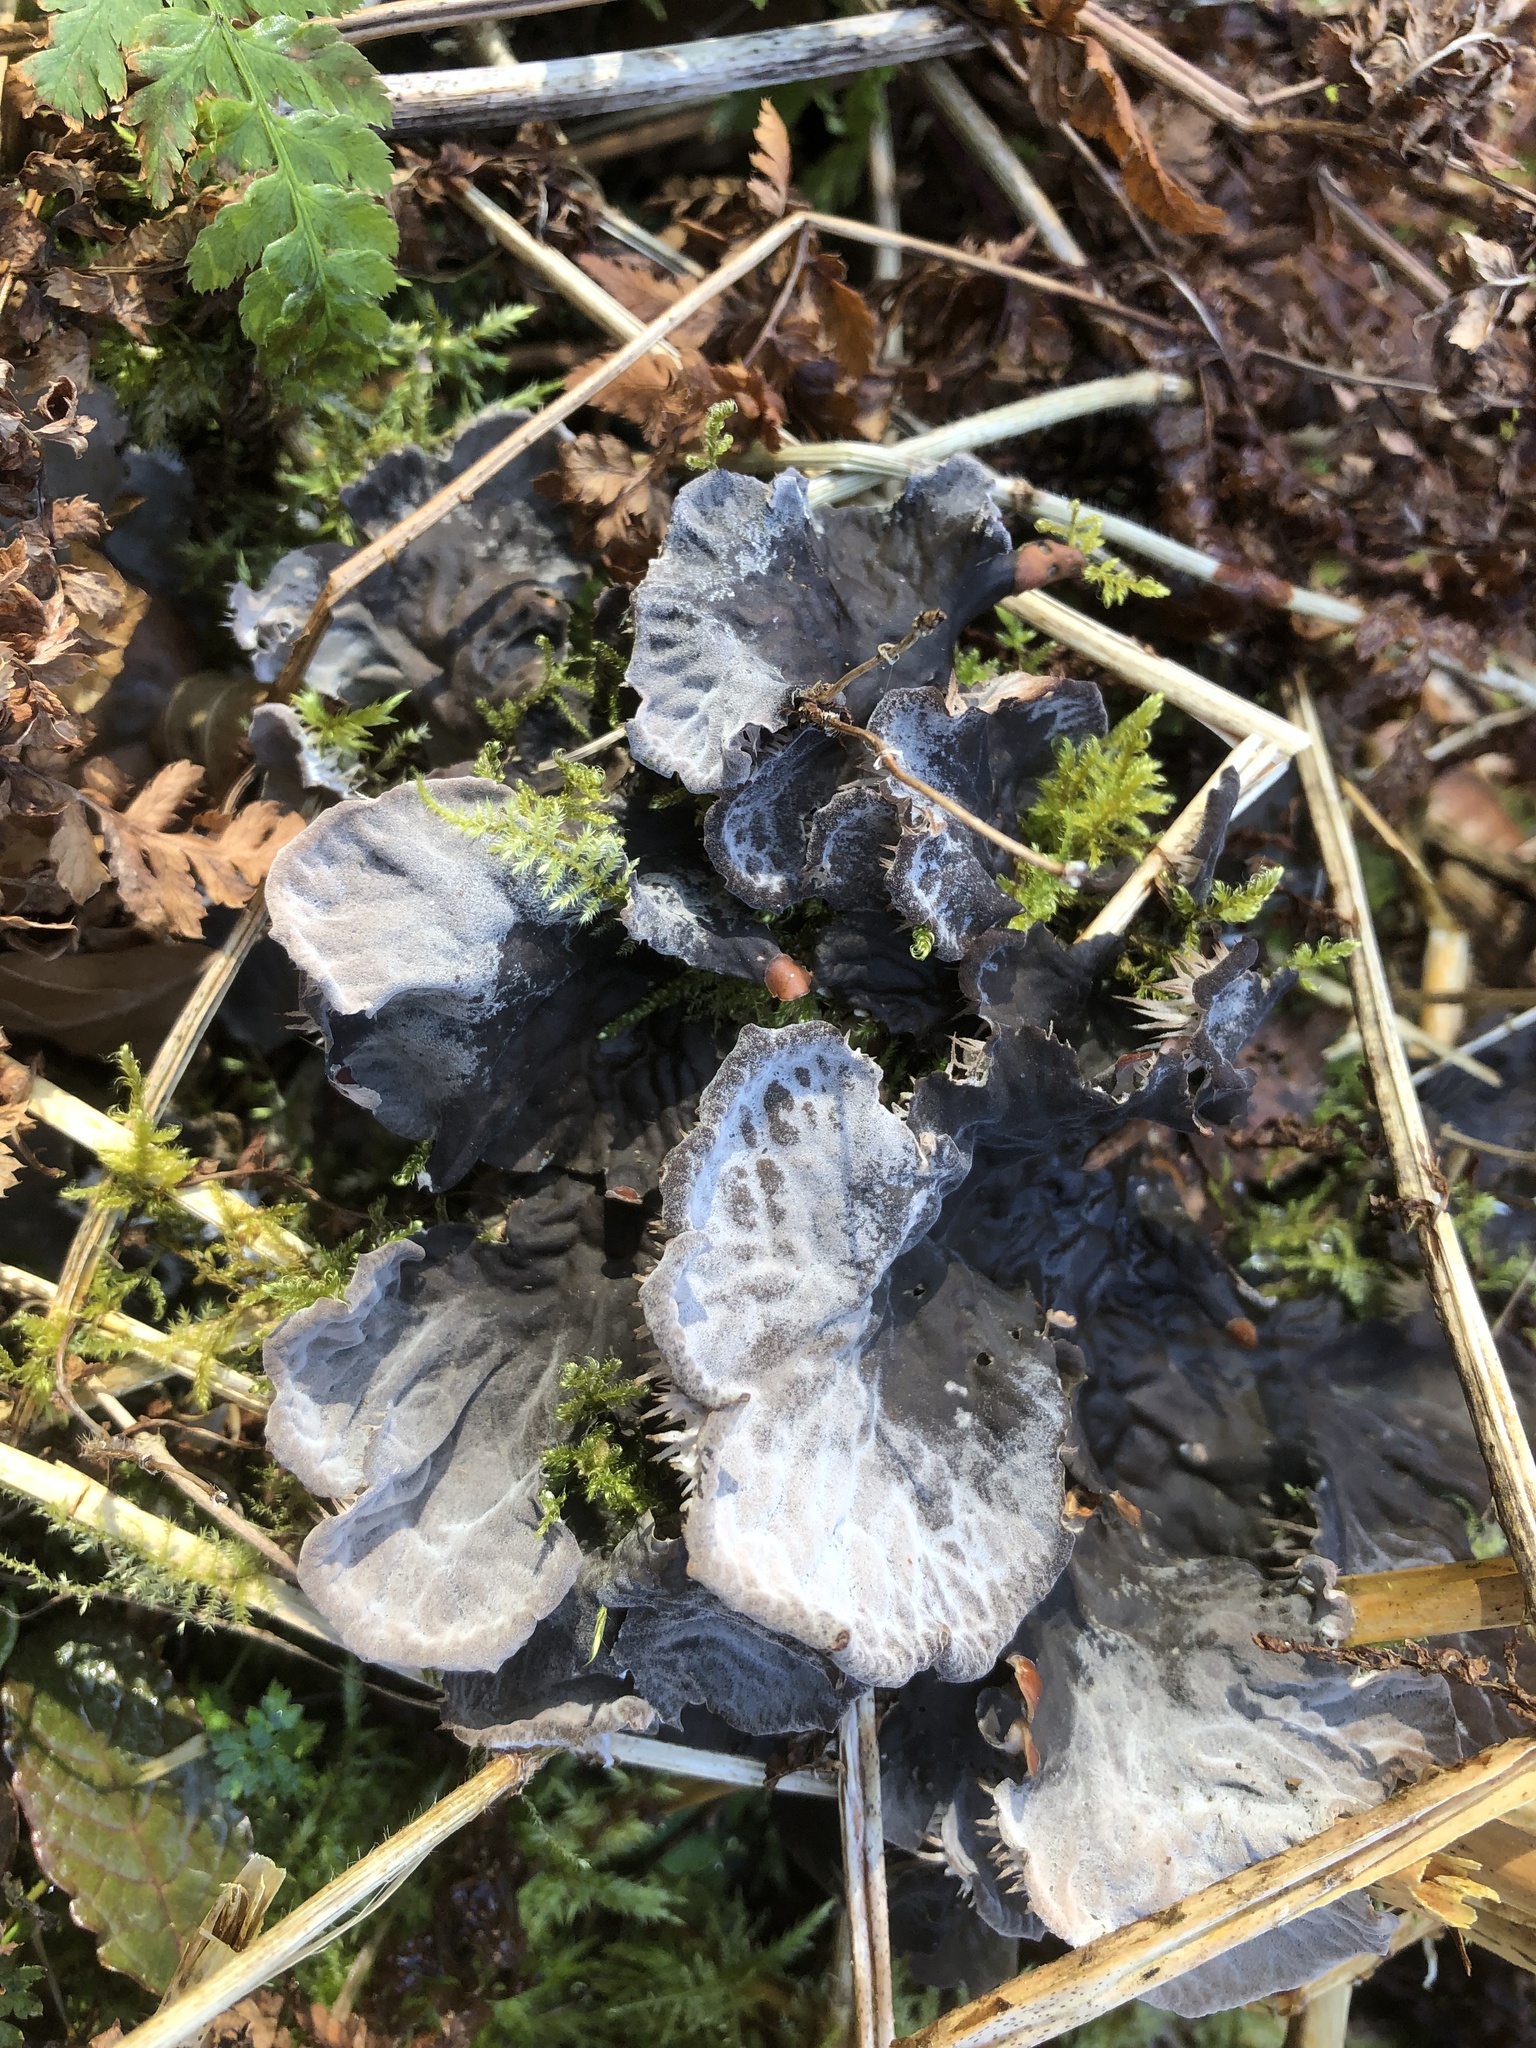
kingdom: Fungi
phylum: Ascomycota
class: Lecanoromycetes
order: Peltigerales
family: Peltigeraceae
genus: Peltigera
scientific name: Peltigera membranacea
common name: Membranous pelt lichen
